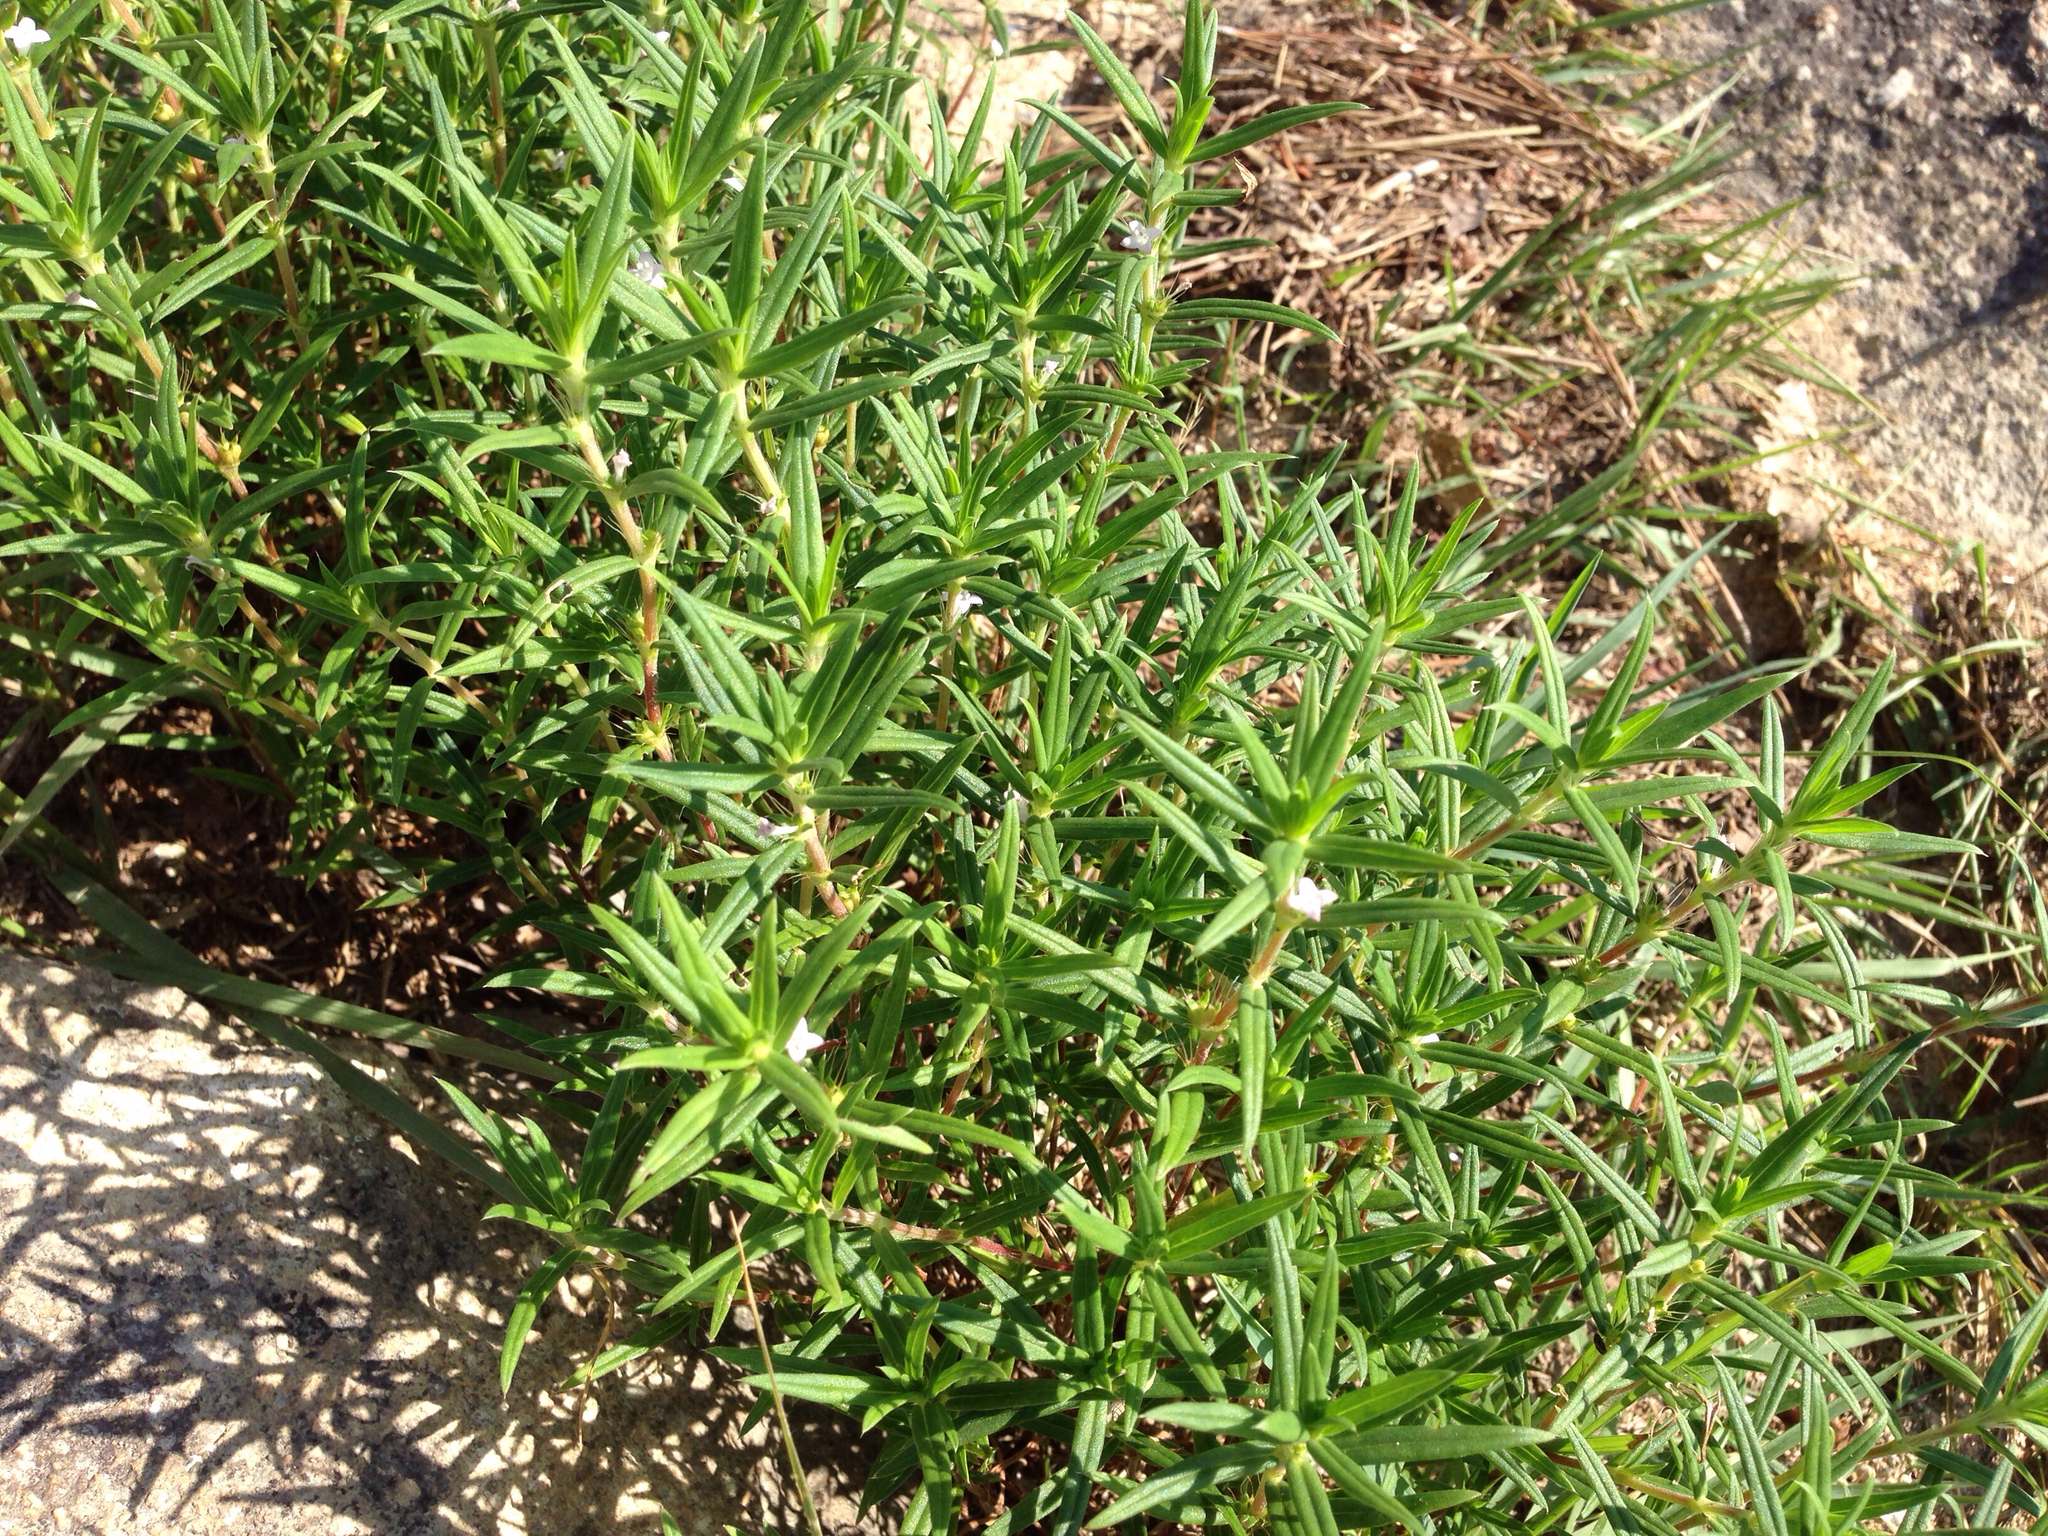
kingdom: Plantae
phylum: Tracheophyta
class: Magnoliopsida
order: Gentianales
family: Rubiaceae
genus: Hexasepalum
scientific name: Hexasepalum teres
